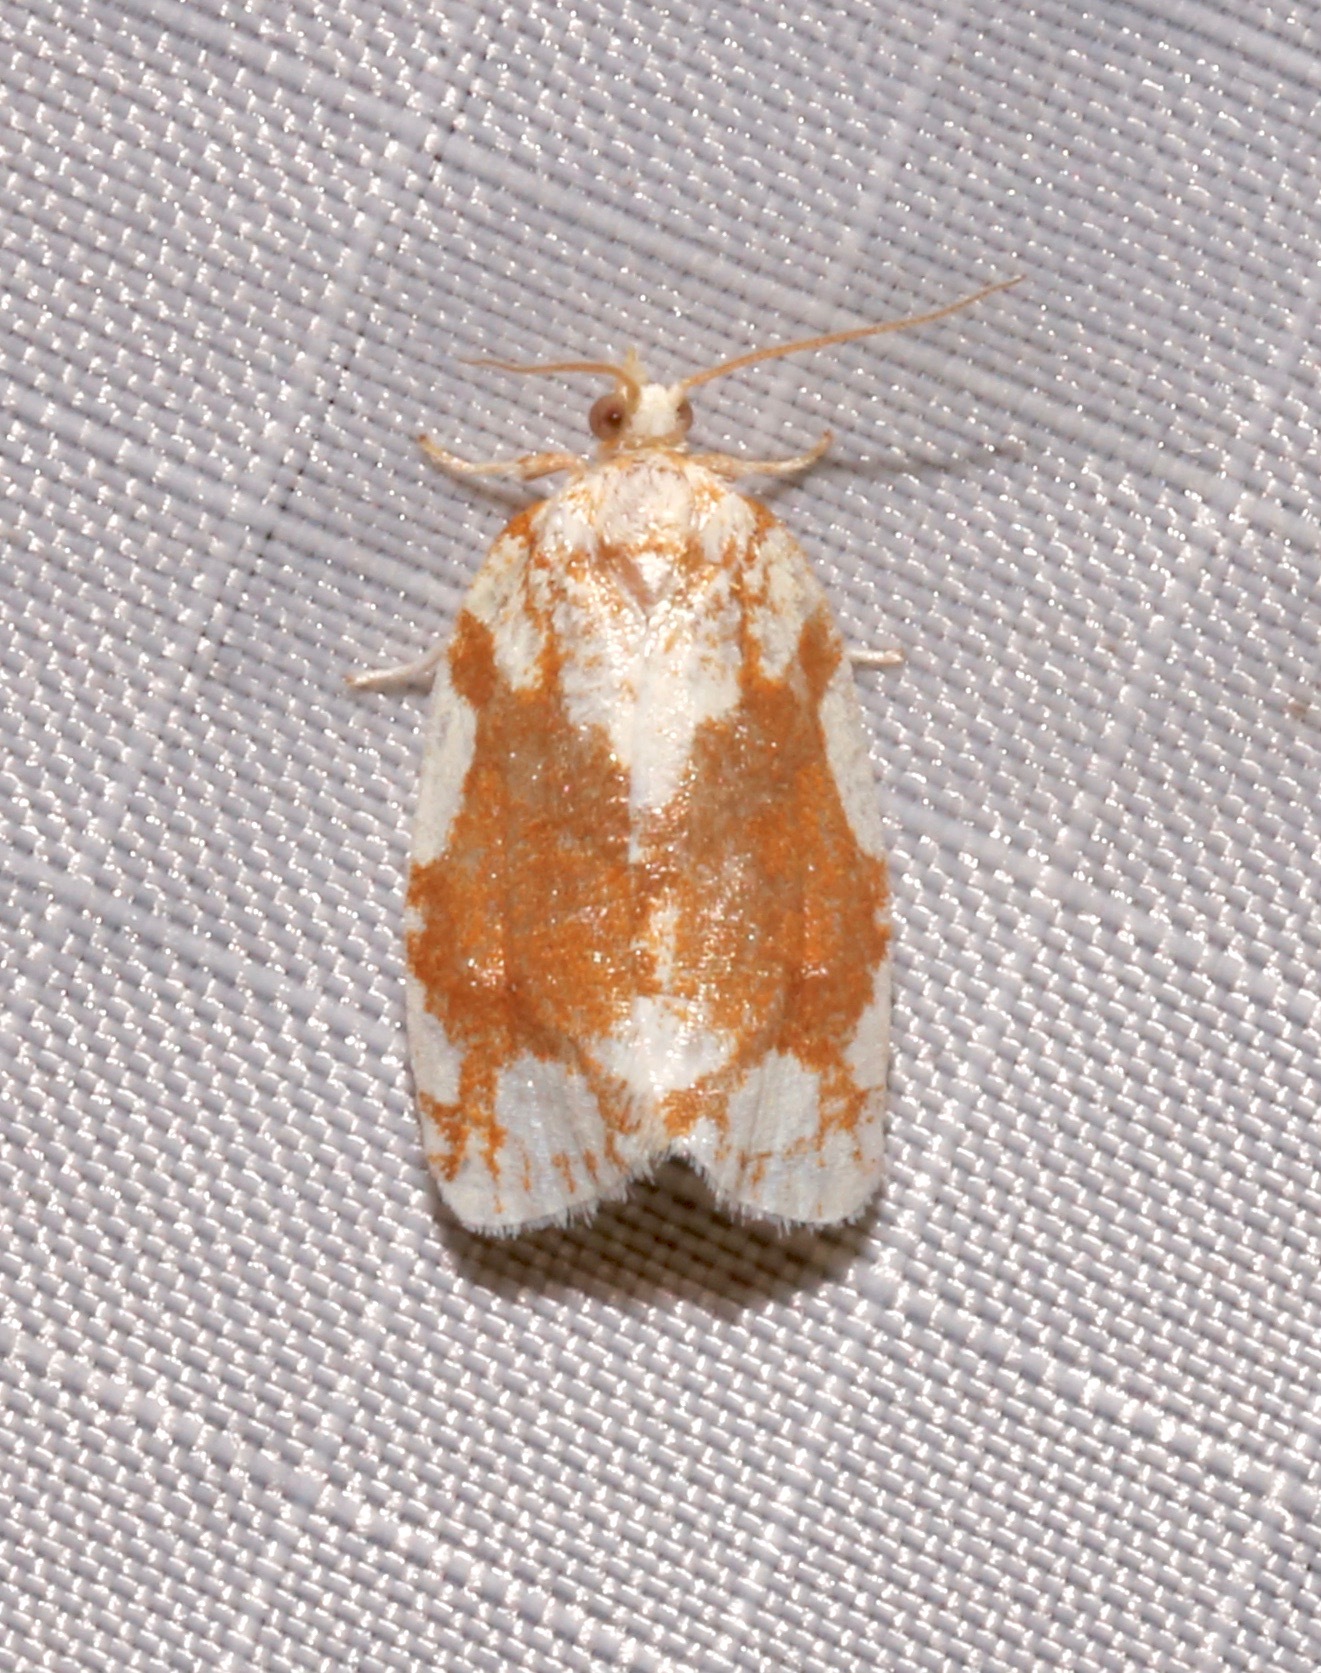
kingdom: Animalia
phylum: Arthropoda
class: Insecta
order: Lepidoptera
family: Tortricidae
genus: Argyrotaenia
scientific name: Argyrotaenia alisellana
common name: White-spotted leafroller moth
